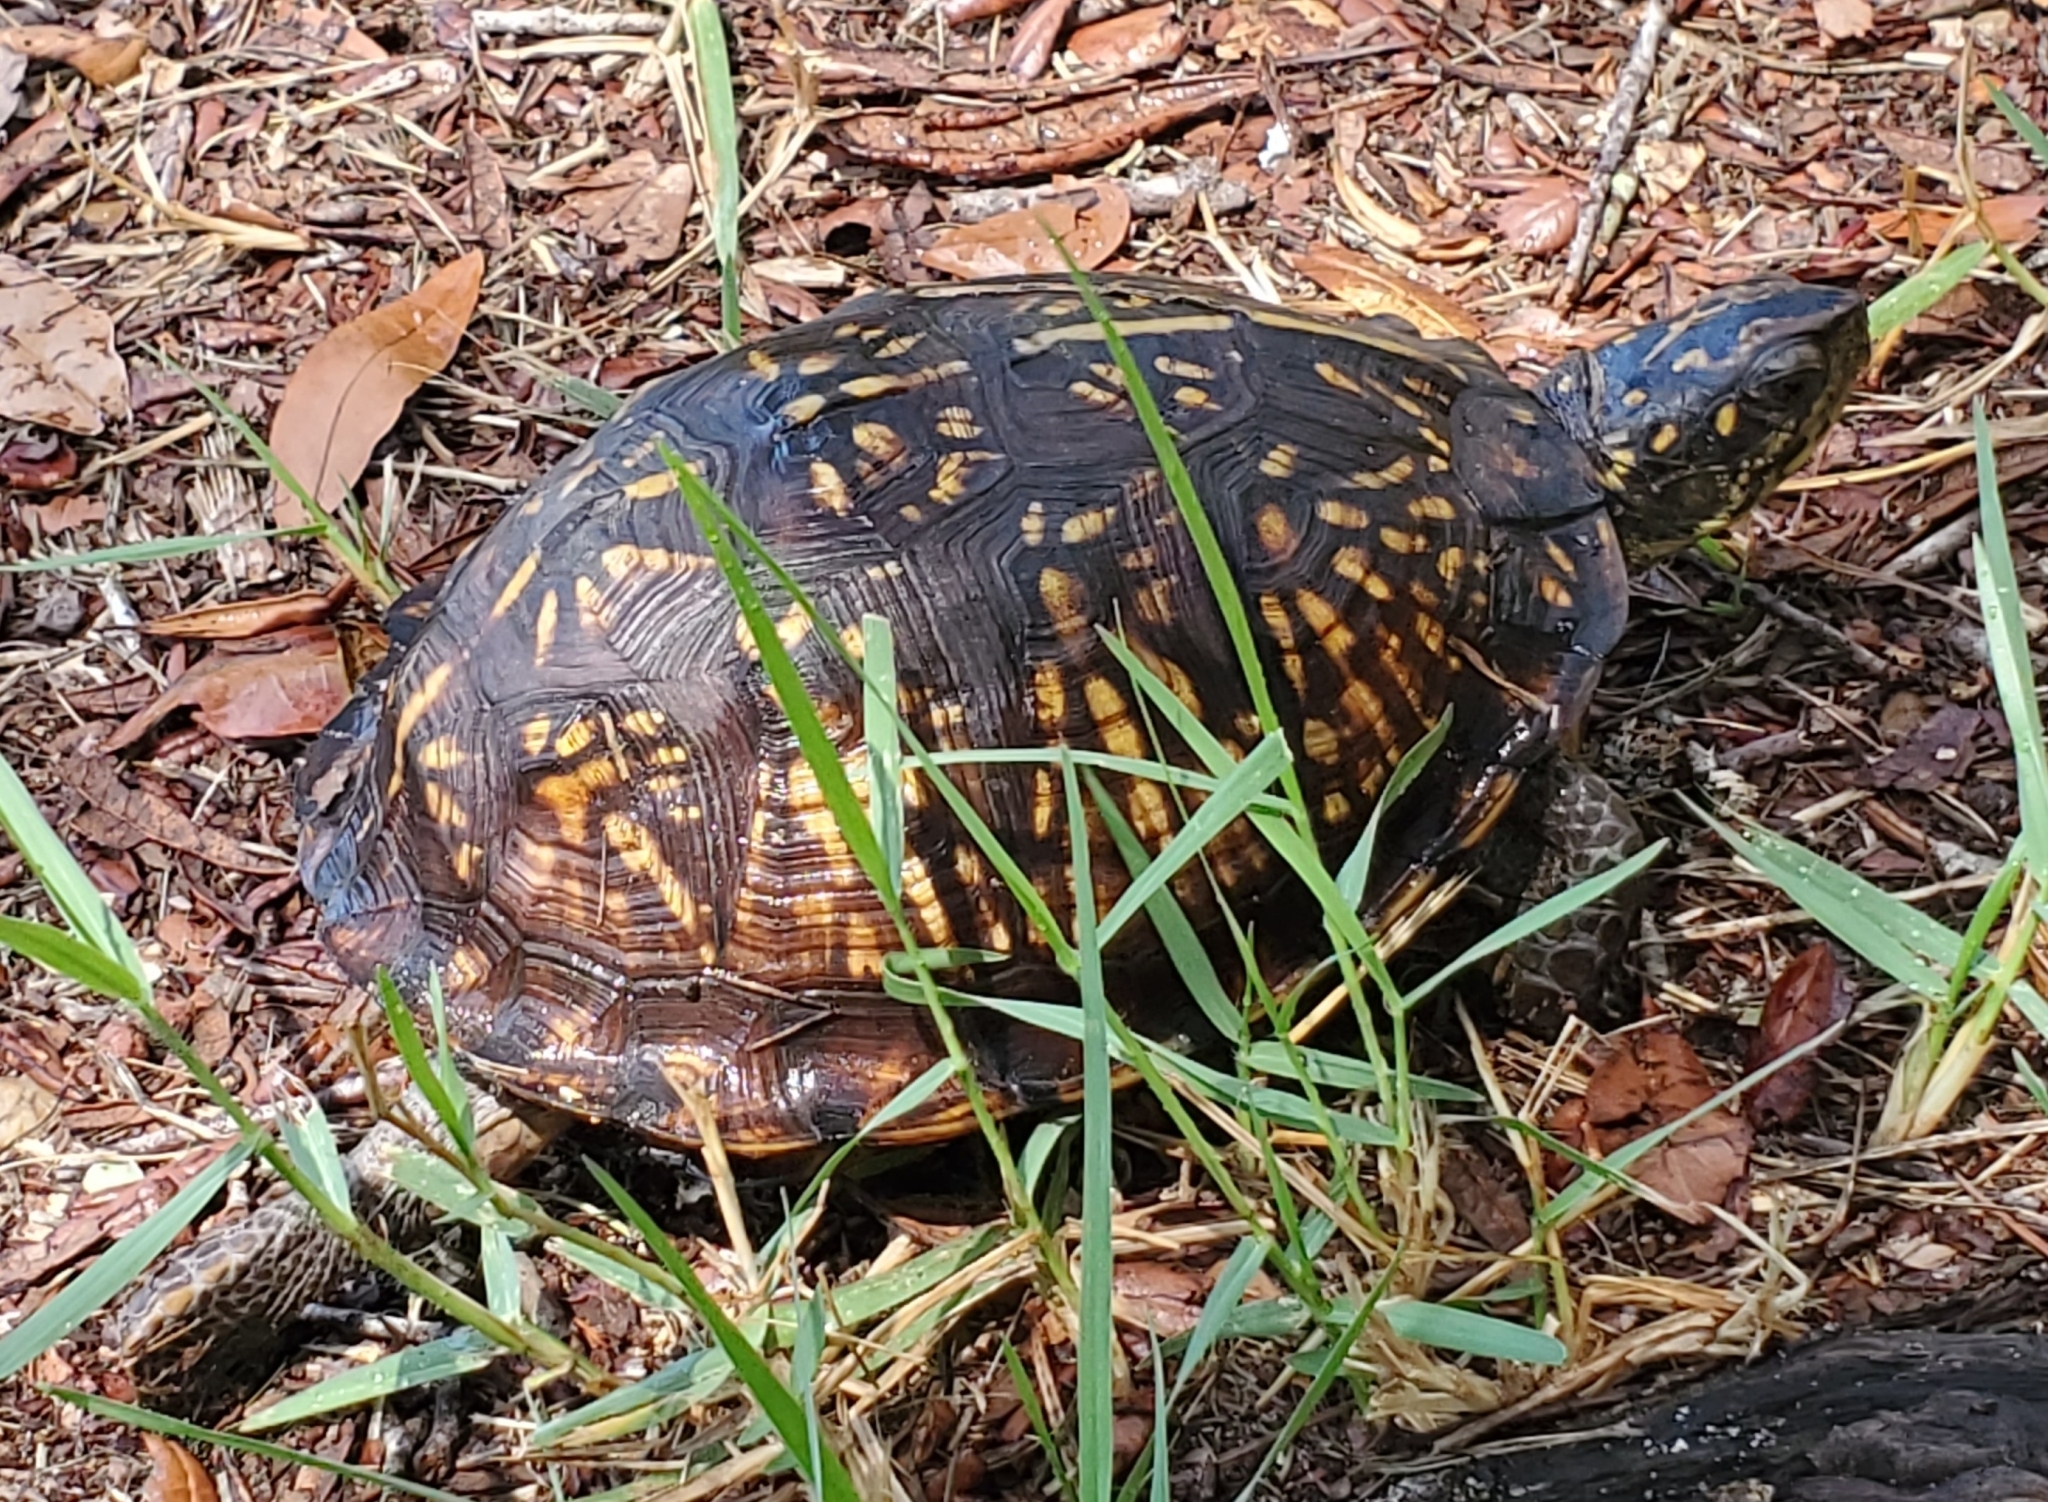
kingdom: Animalia
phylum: Chordata
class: Testudines
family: Emydidae
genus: Terrapene
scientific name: Terrapene carolina
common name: Common box turtle
